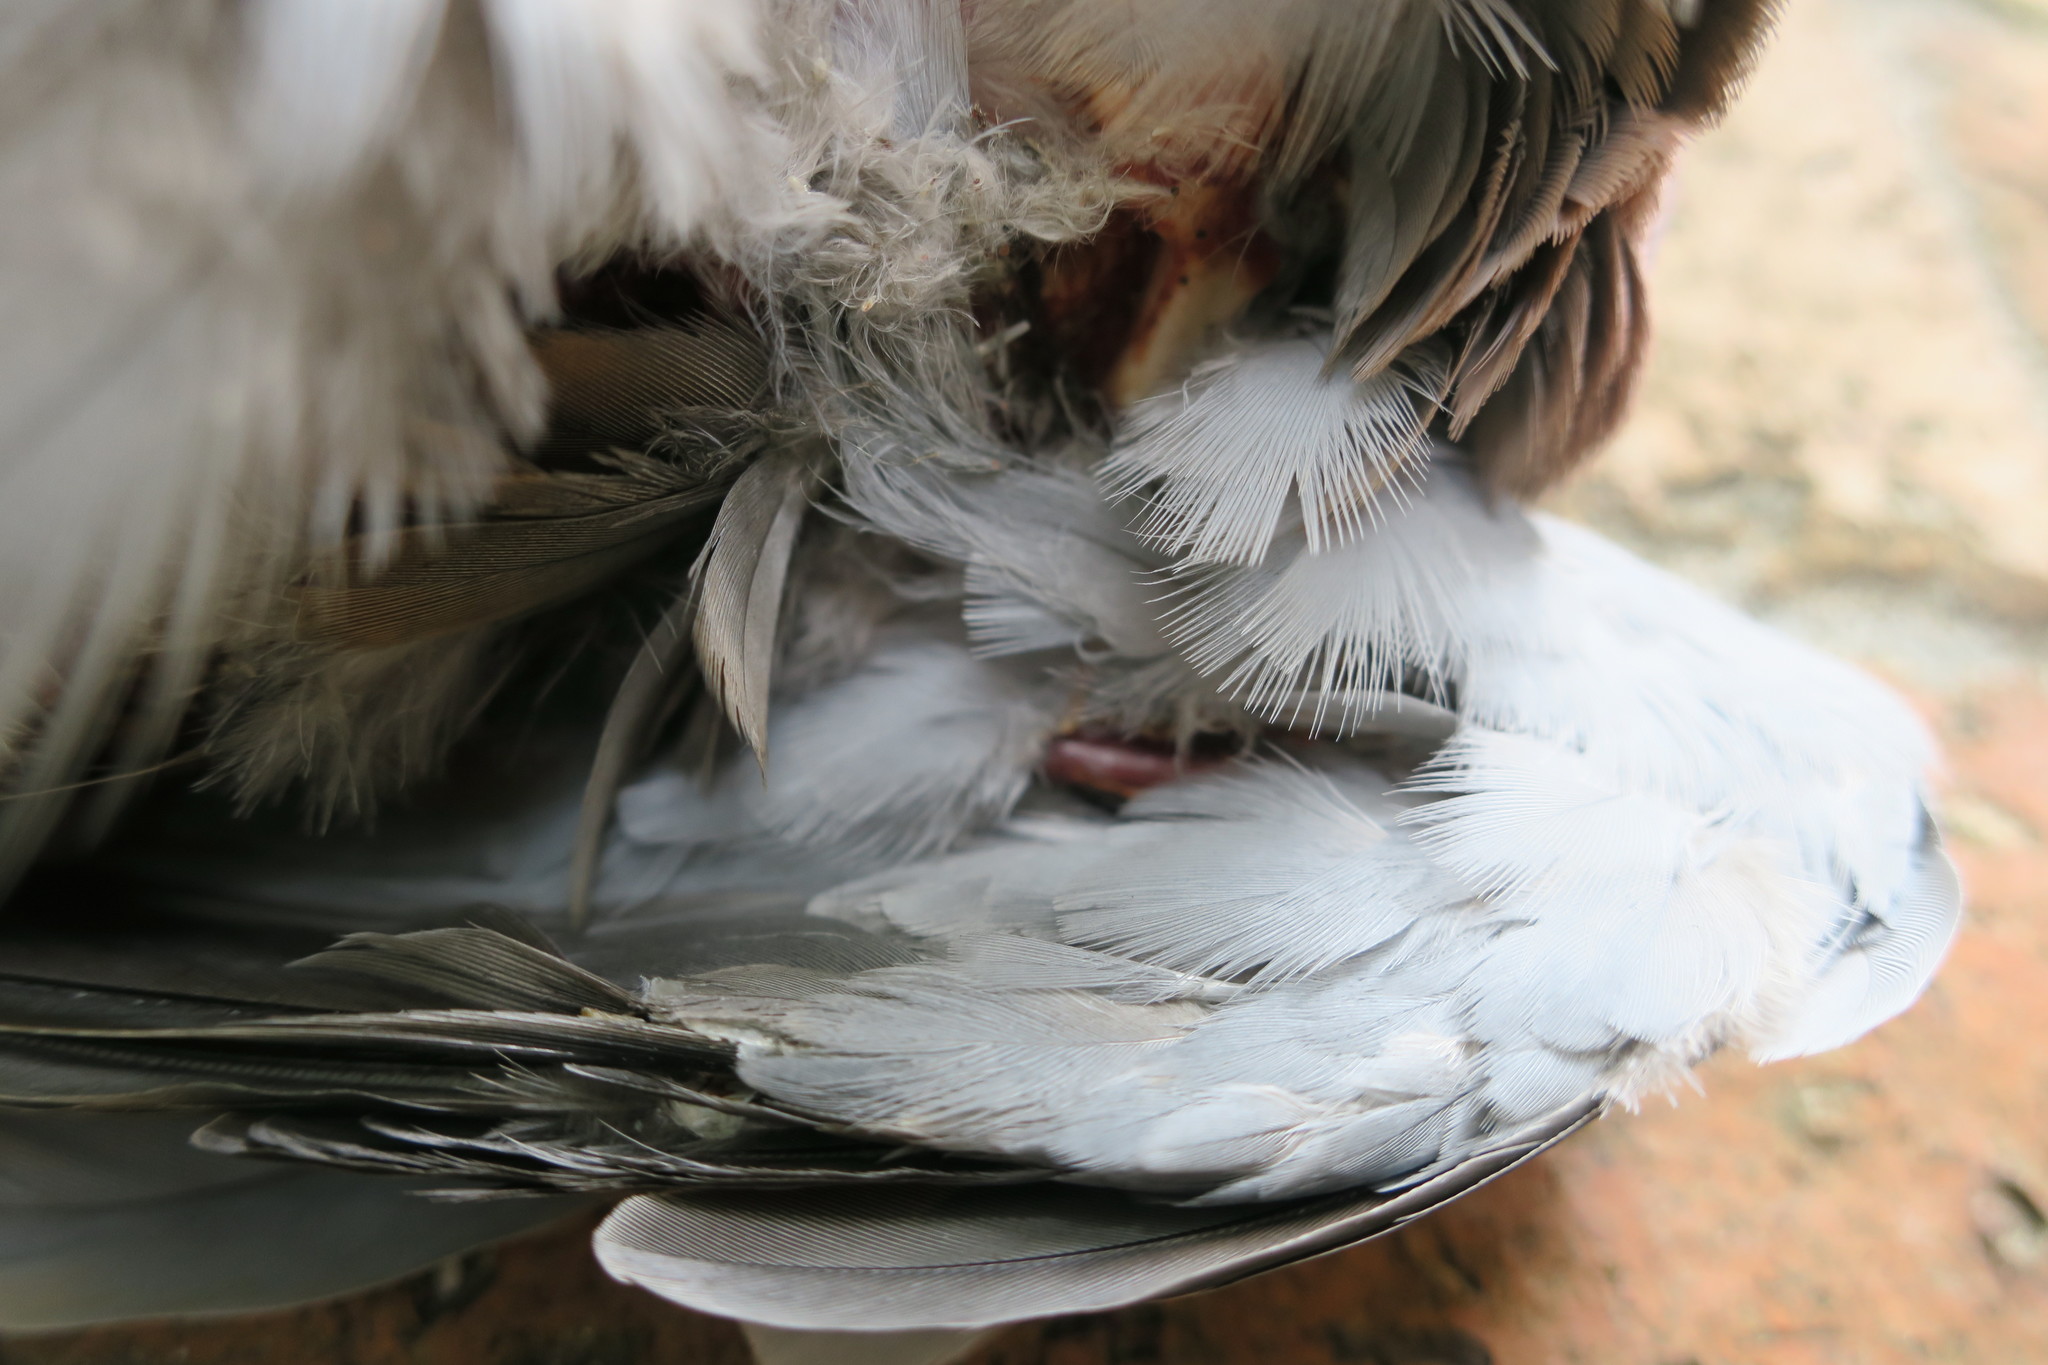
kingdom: Animalia
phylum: Chordata
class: Aves
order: Columbiformes
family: Columbidae
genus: Spilopelia
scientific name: Spilopelia senegalensis
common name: Laughing dove
